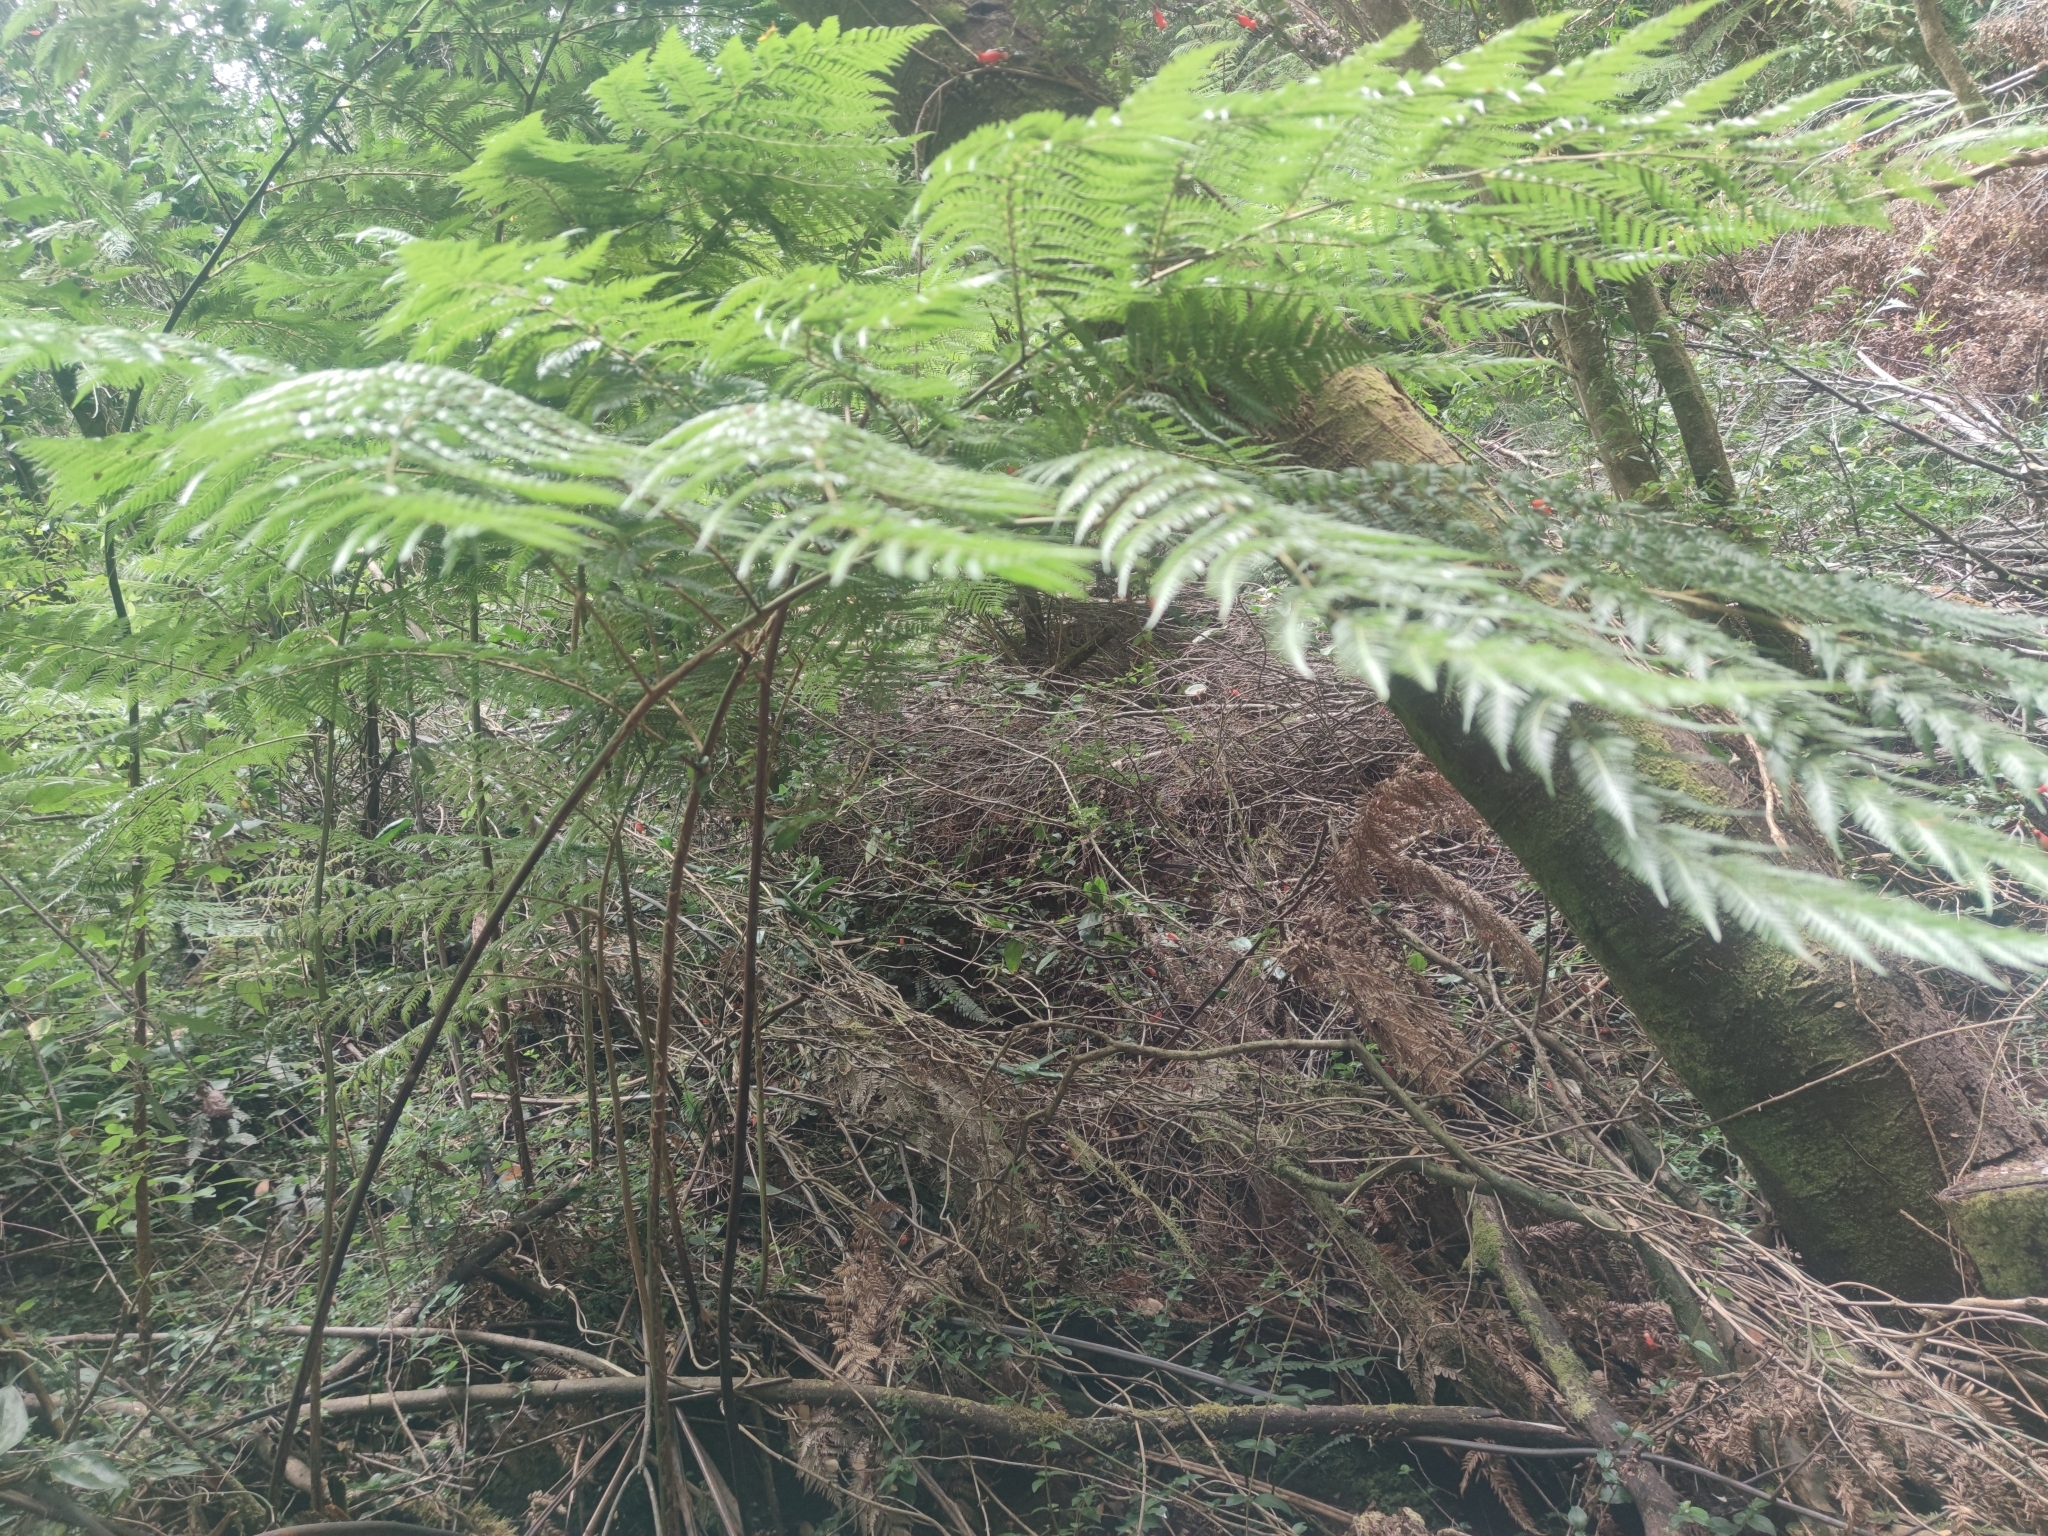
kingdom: Plantae
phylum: Tracheophyta
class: Polypodiopsida
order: Cyatheales
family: Dicksoniaceae
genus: Lophosoria
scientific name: Lophosoria quadripinnata
